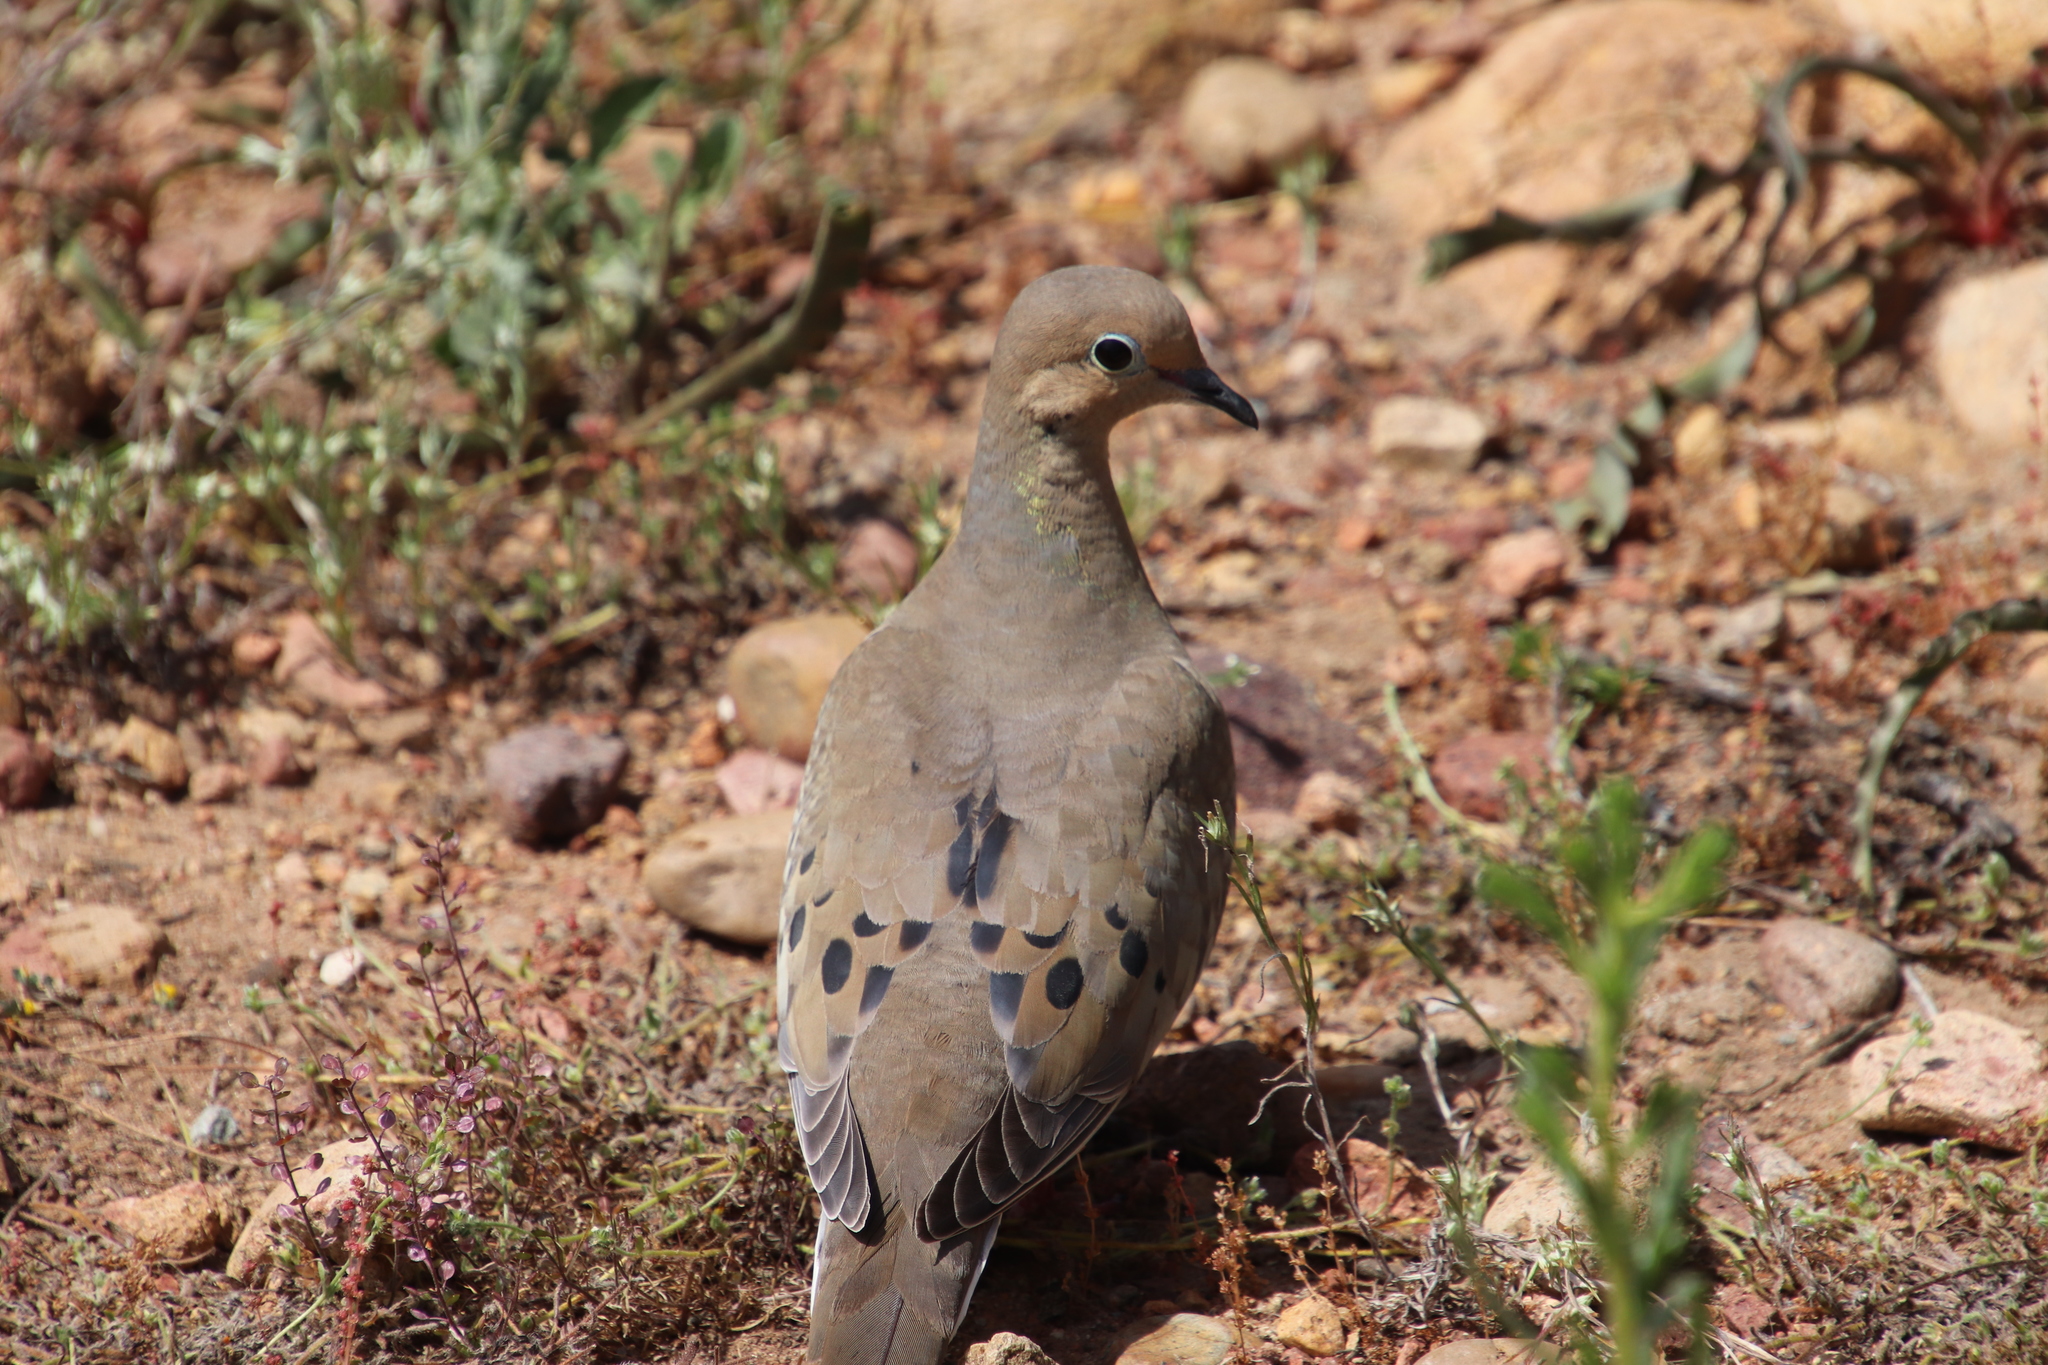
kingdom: Animalia
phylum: Chordata
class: Aves
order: Columbiformes
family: Columbidae
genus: Zenaida
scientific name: Zenaida macroura
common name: Mourning dove
